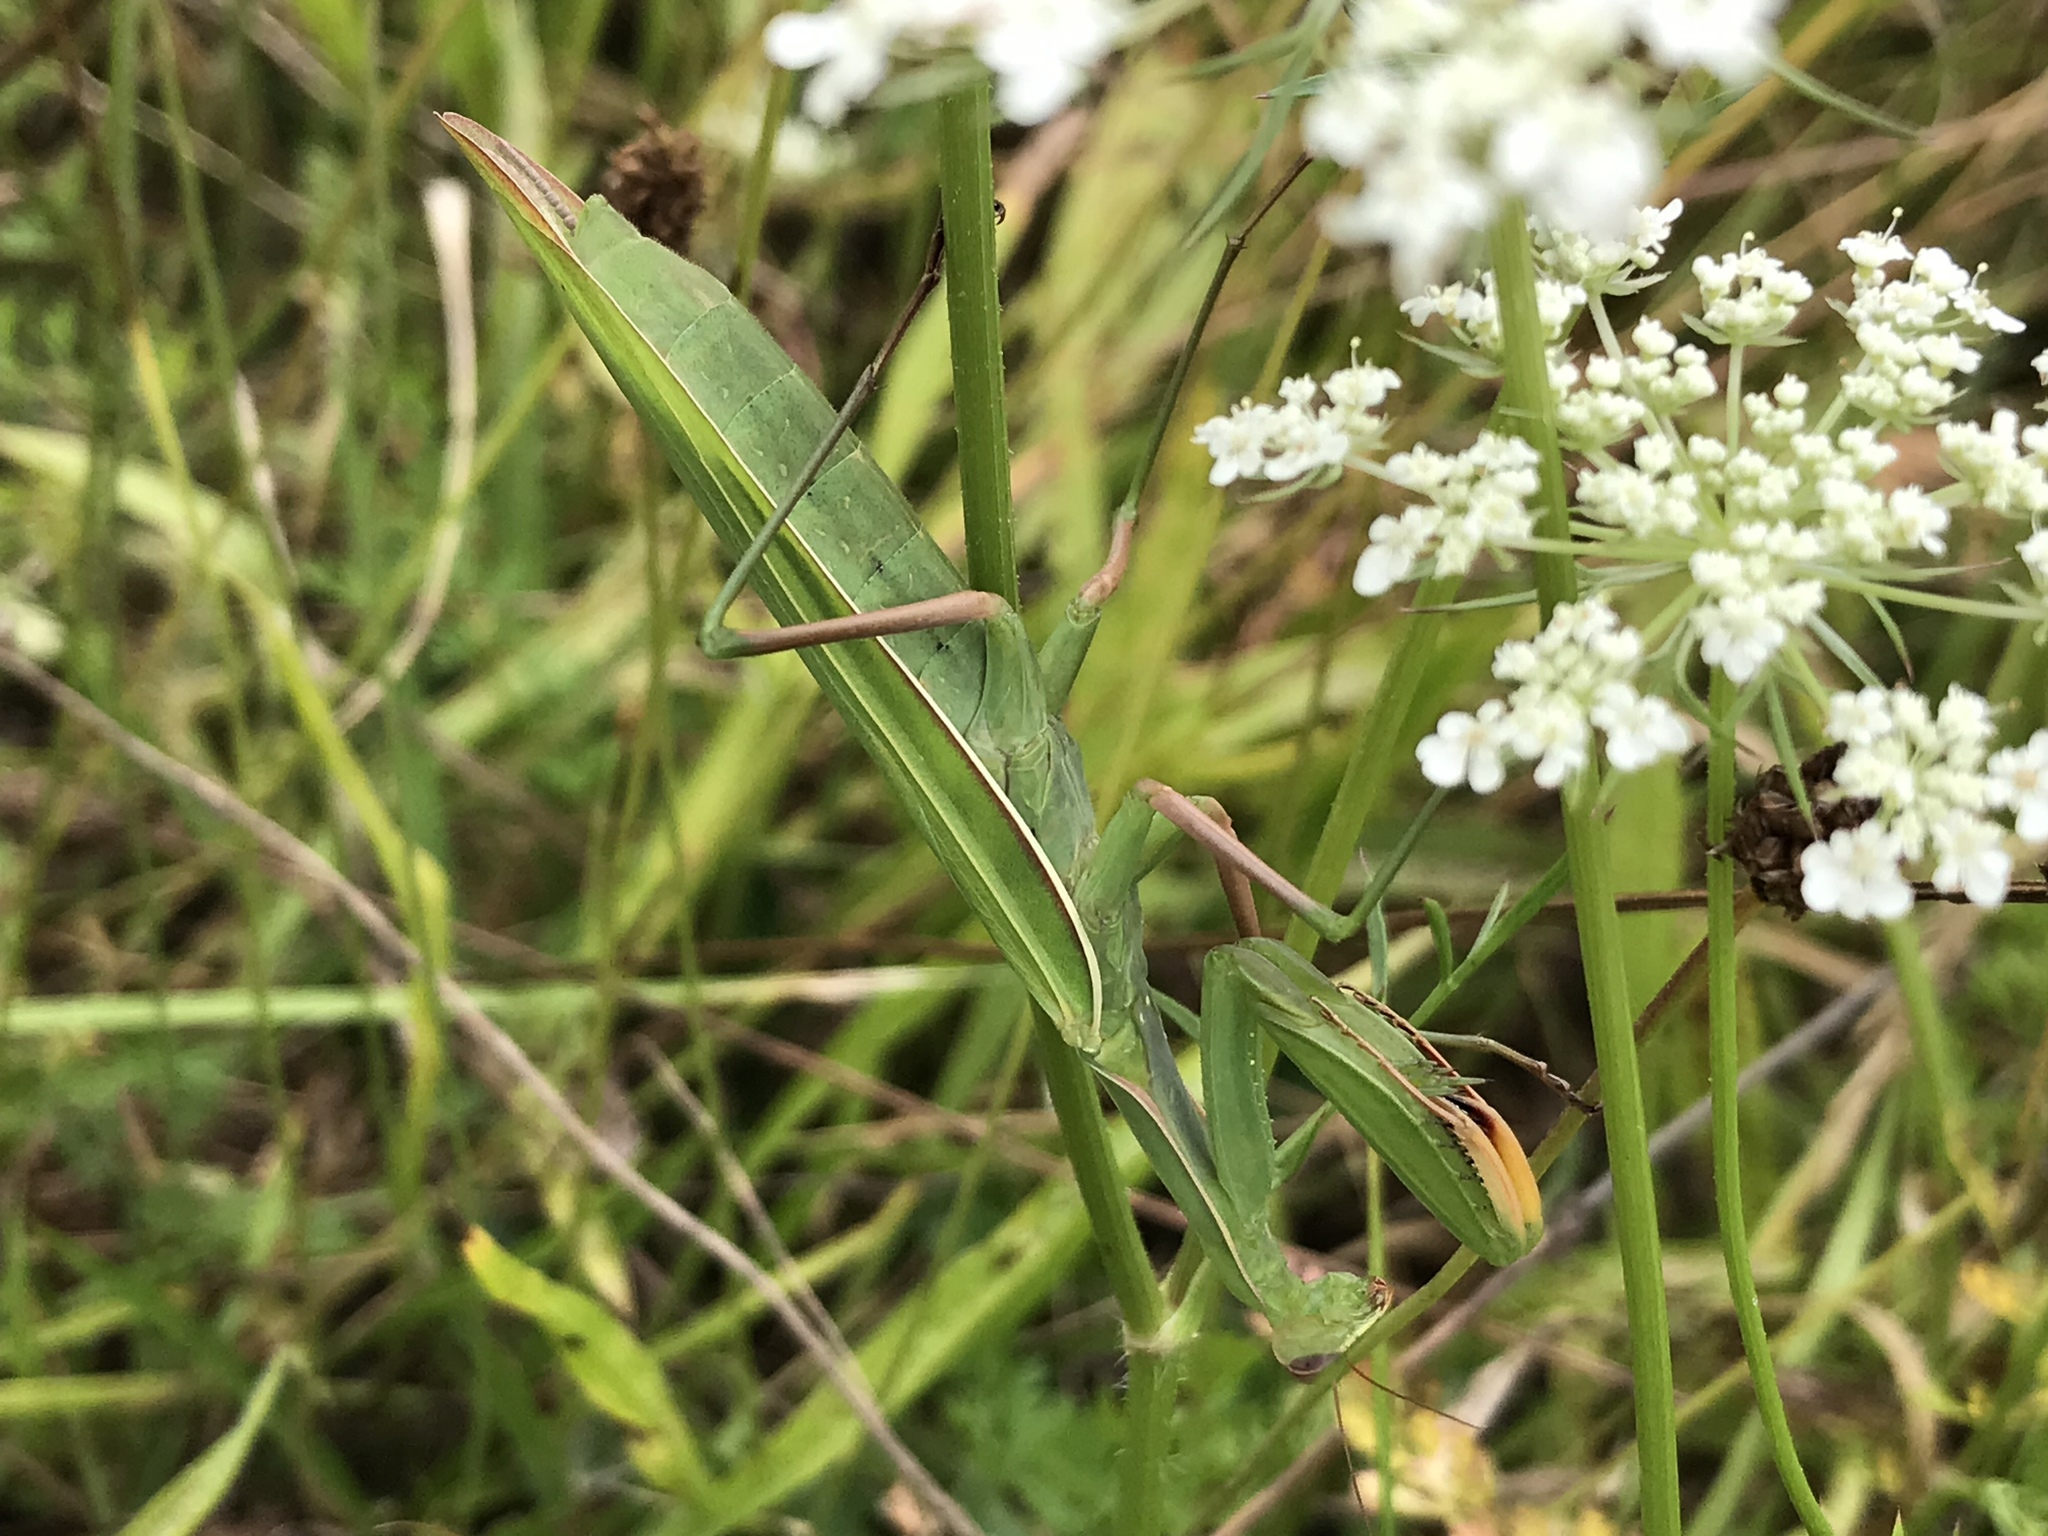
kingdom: Animalia
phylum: Arthropoda
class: Insecta
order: Mantodea
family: Mantidae
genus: Mantis
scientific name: Mantis religiosa
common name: Praying mantis
